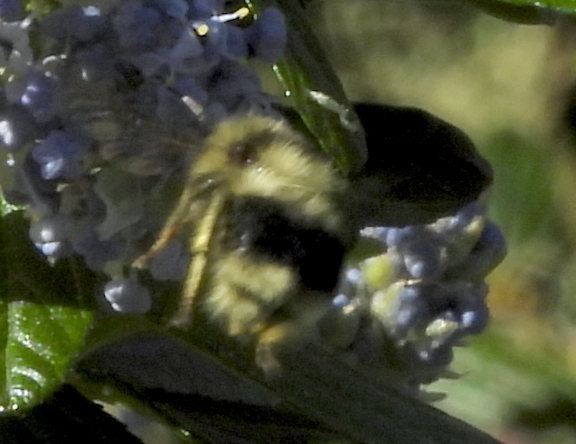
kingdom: Animalia
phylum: Arthropoda
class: Insecta
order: Hymenoptera
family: Apidae
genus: Bombus
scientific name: Bombus melanopygus
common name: Black tail bumble bee
